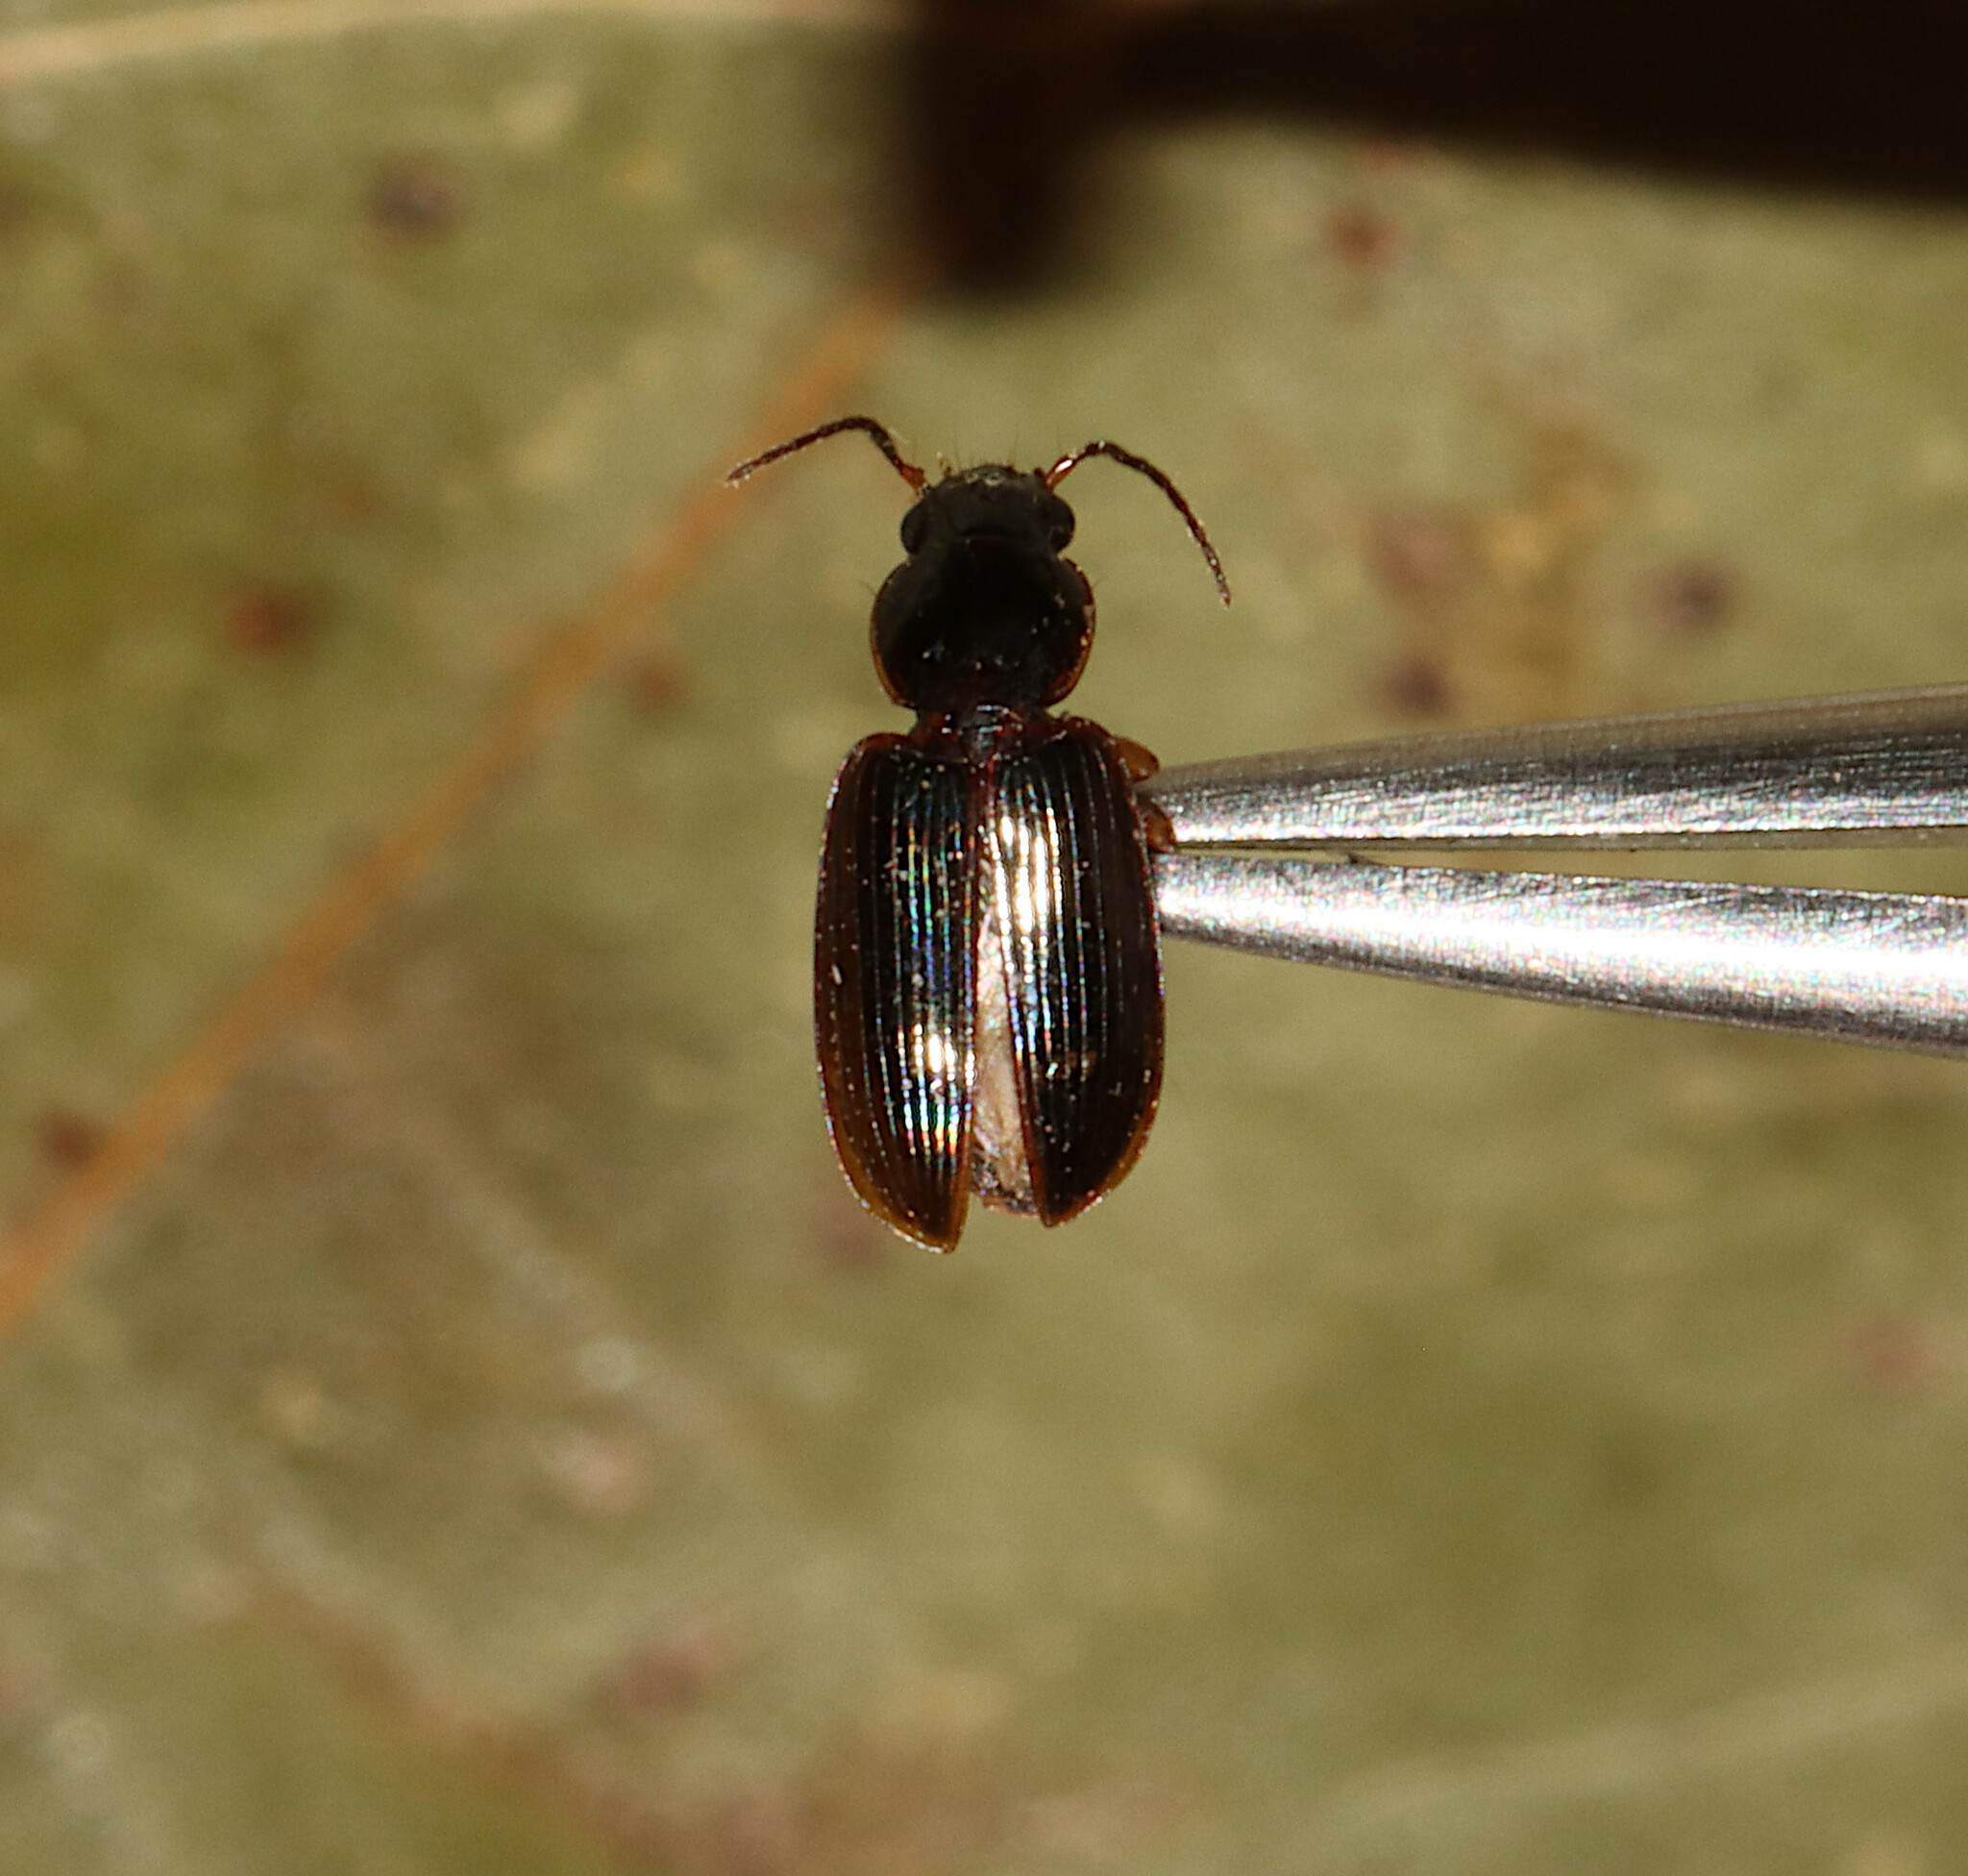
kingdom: Animalia
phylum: Arthropoda
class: Insecta
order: Coleoptera
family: Carabidae
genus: Stenolophus
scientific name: Stenolophus ochropezus
